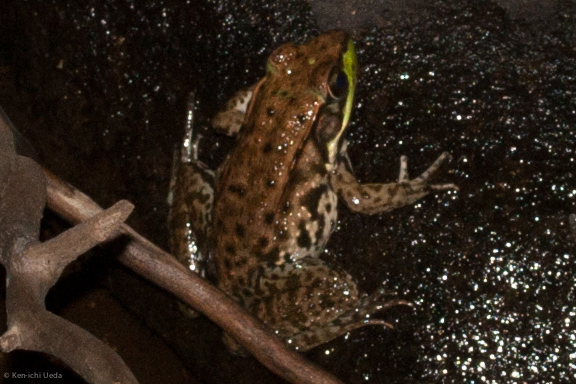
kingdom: Animalia
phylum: Chordata
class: Amphibia
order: Anura
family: Ranidae
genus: Lithobates
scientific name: Lithobates clamitans
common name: Green frog
